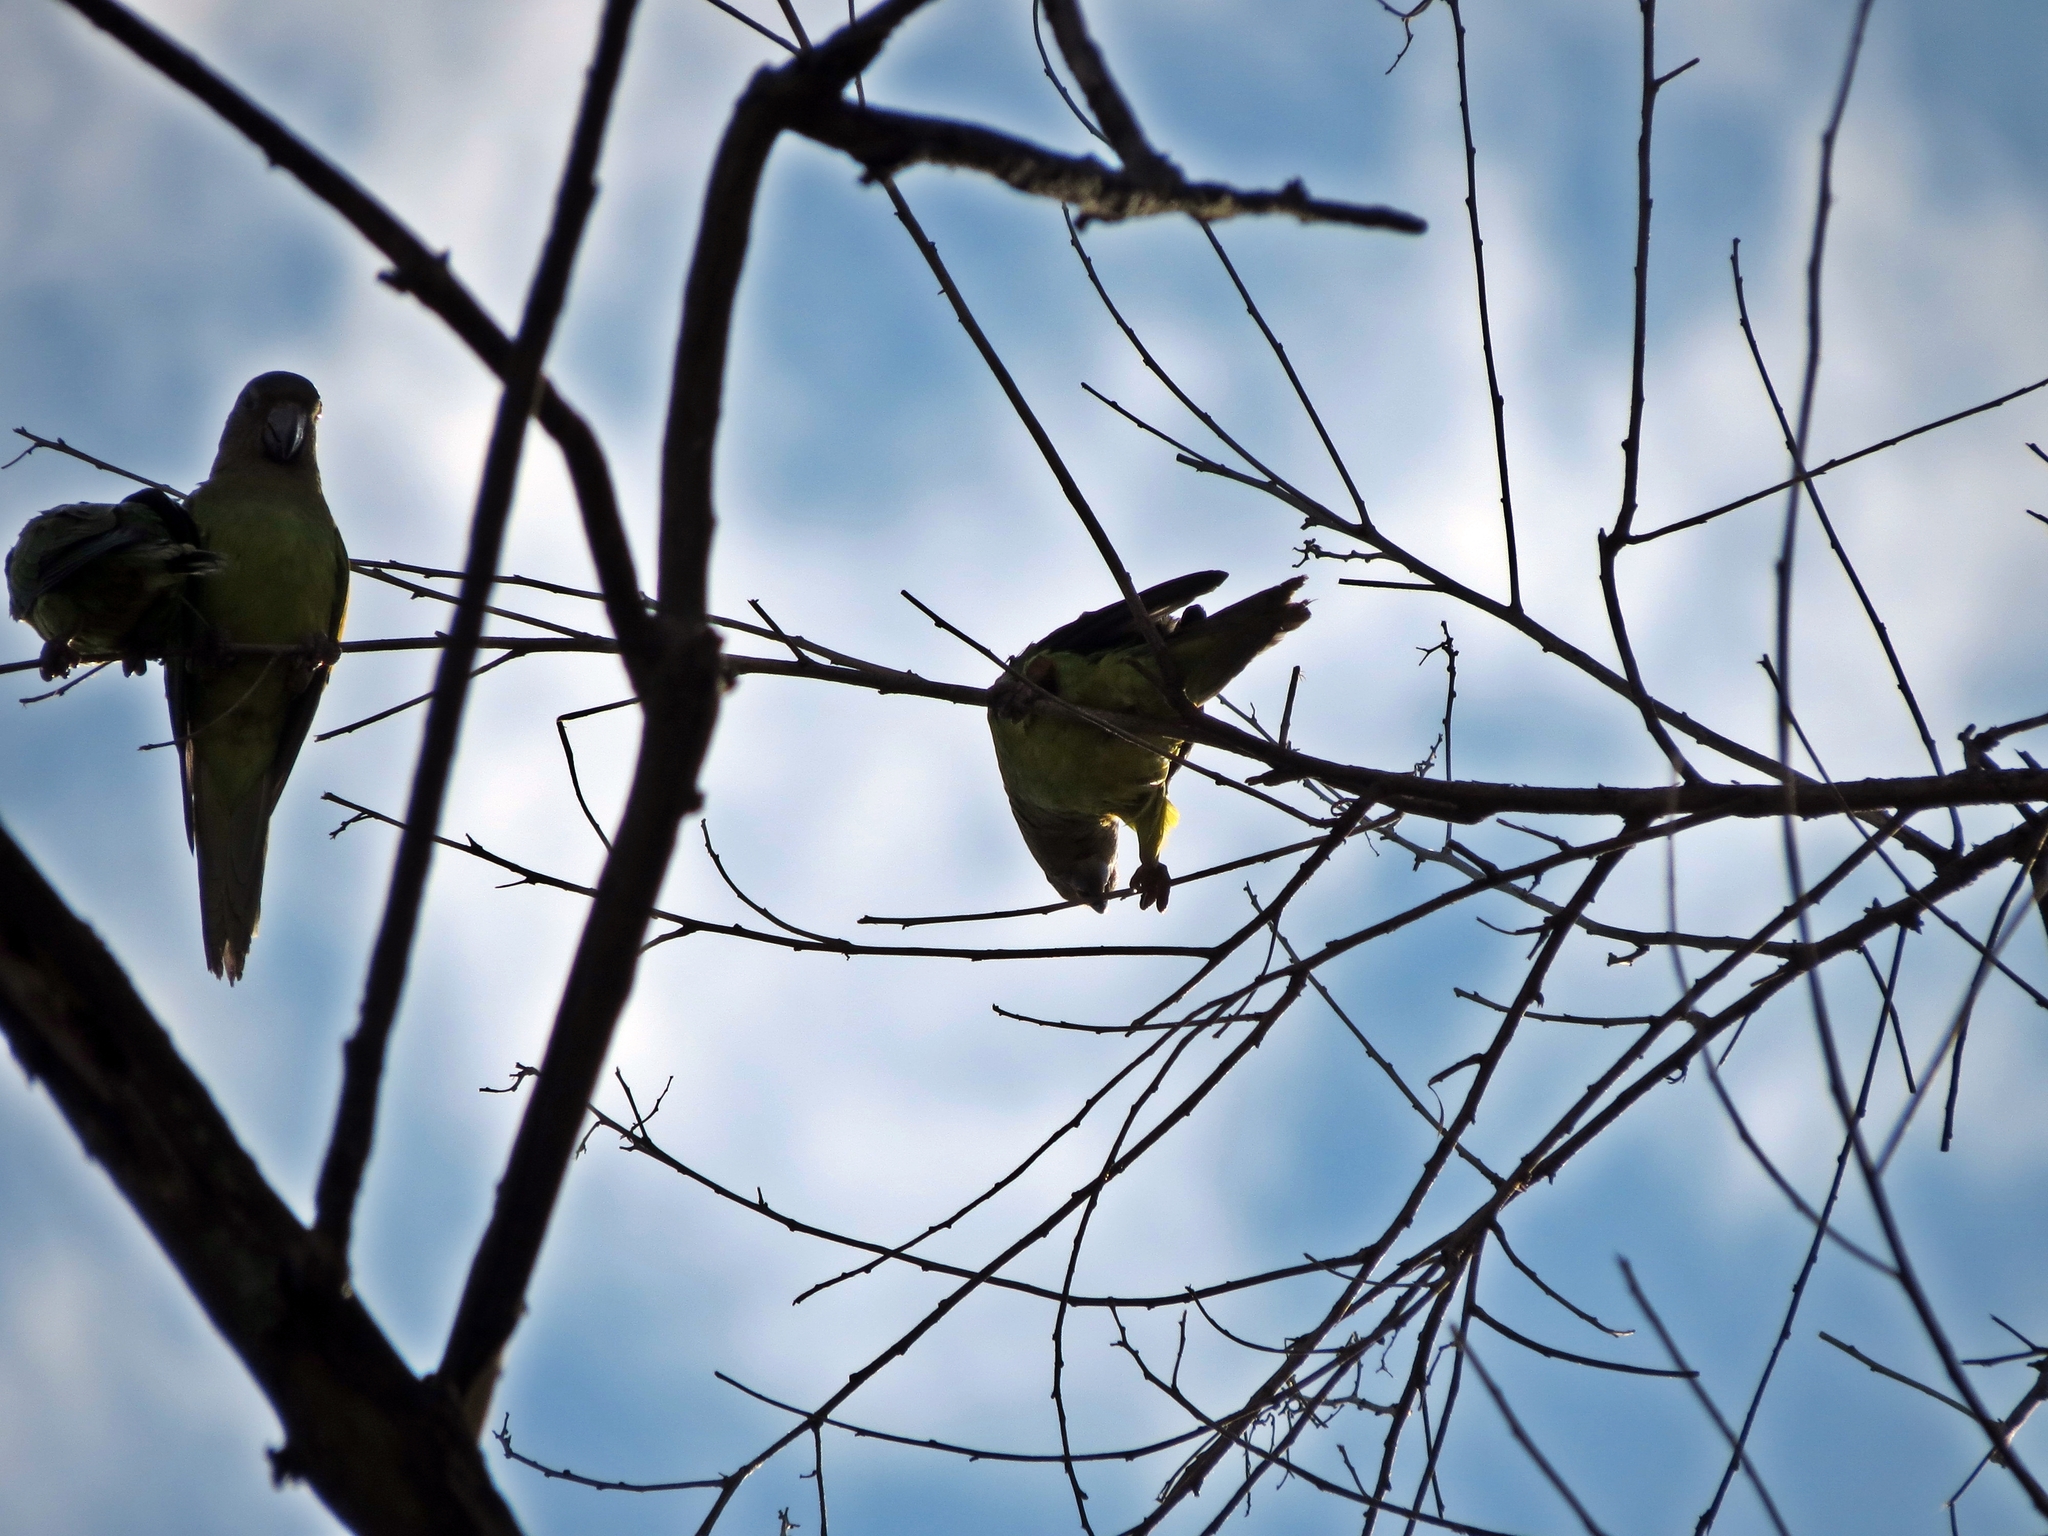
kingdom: Animalia
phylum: Chordata
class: Aves
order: Psittaciformes
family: Psittacidae
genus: Aratinga
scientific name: Aratinga wagleri
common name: Scarlet-fronted parakeet
